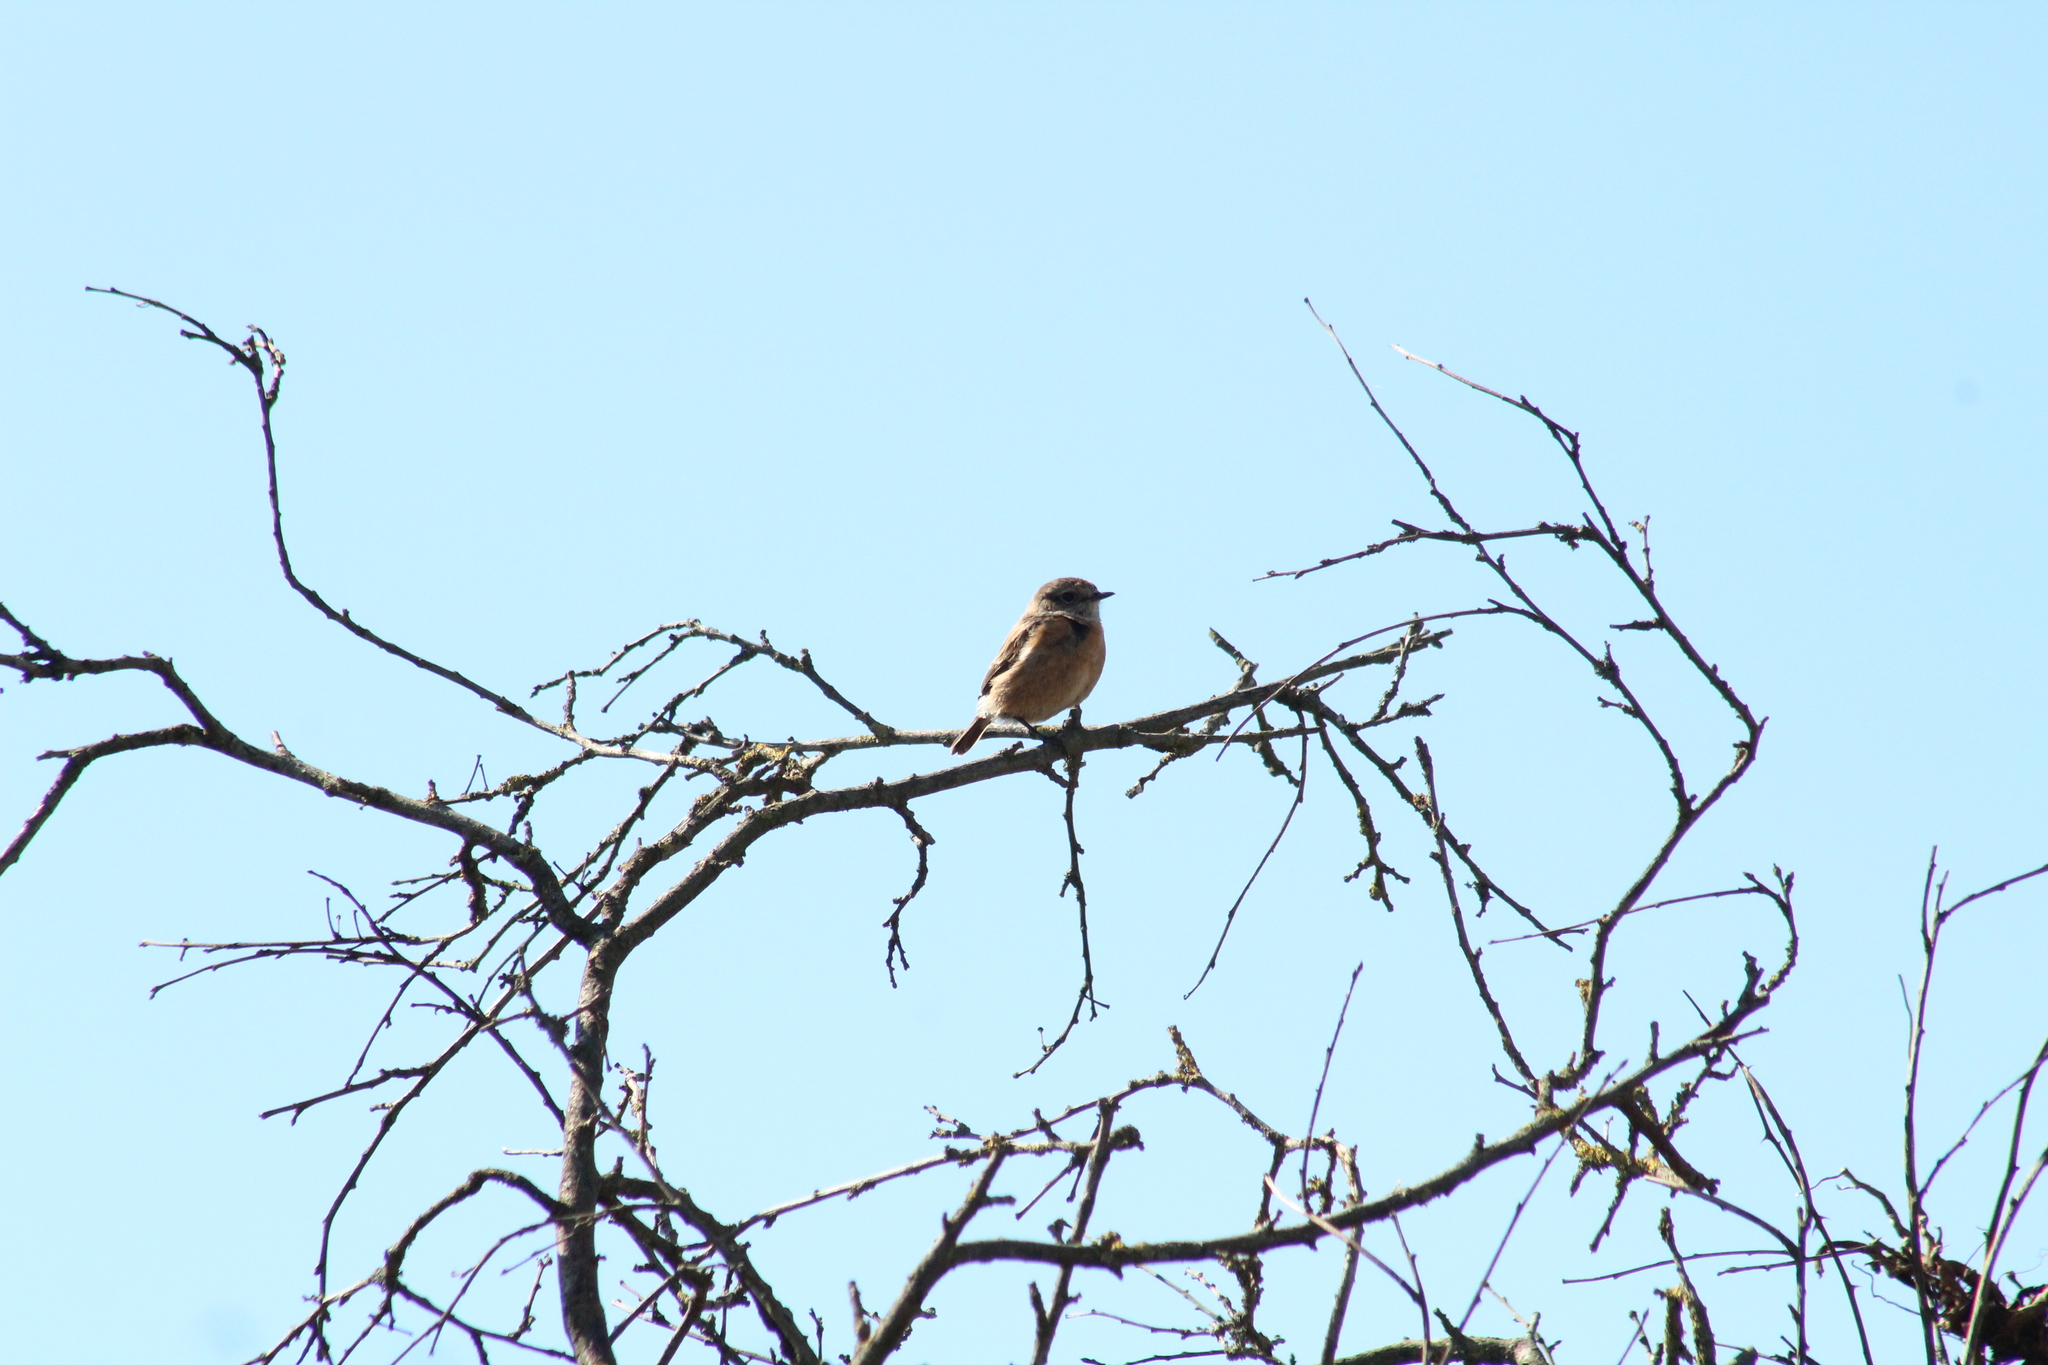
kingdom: Animalia
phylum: Chordata
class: Aves
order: Passeriformes
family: Muscicapidae
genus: Saxicola
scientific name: Saxicola rubicola
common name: European stonechat
